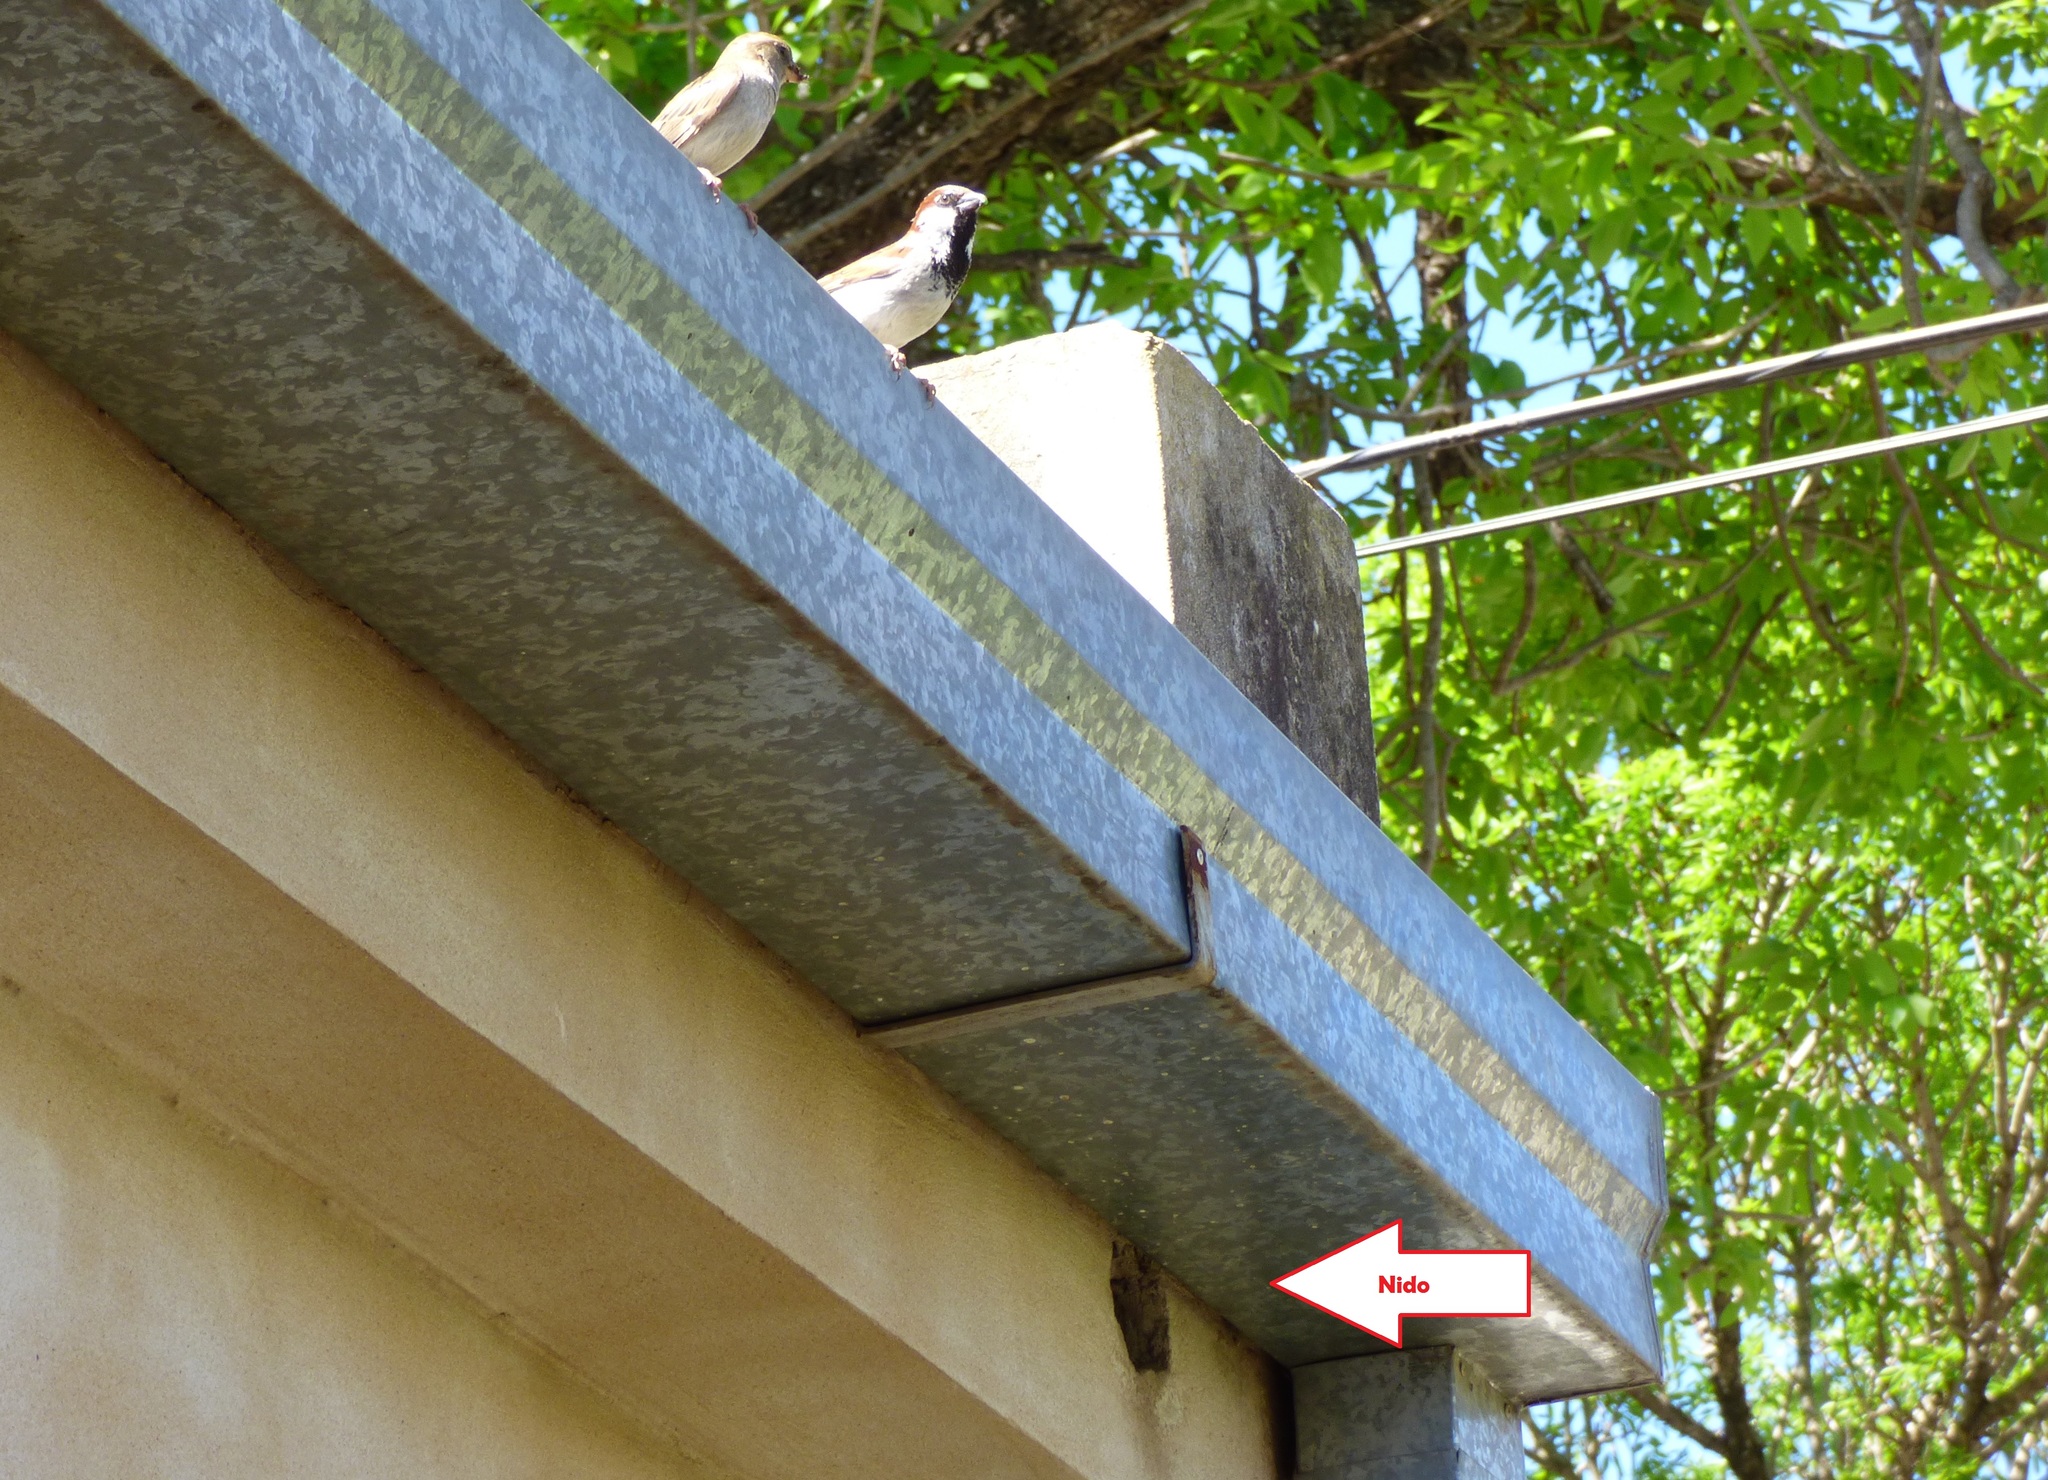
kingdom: Animalia
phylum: Chordata
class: Aves
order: Passeriformes
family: Passeridae
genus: Passer
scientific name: Passer domesticus
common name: House sparrow
